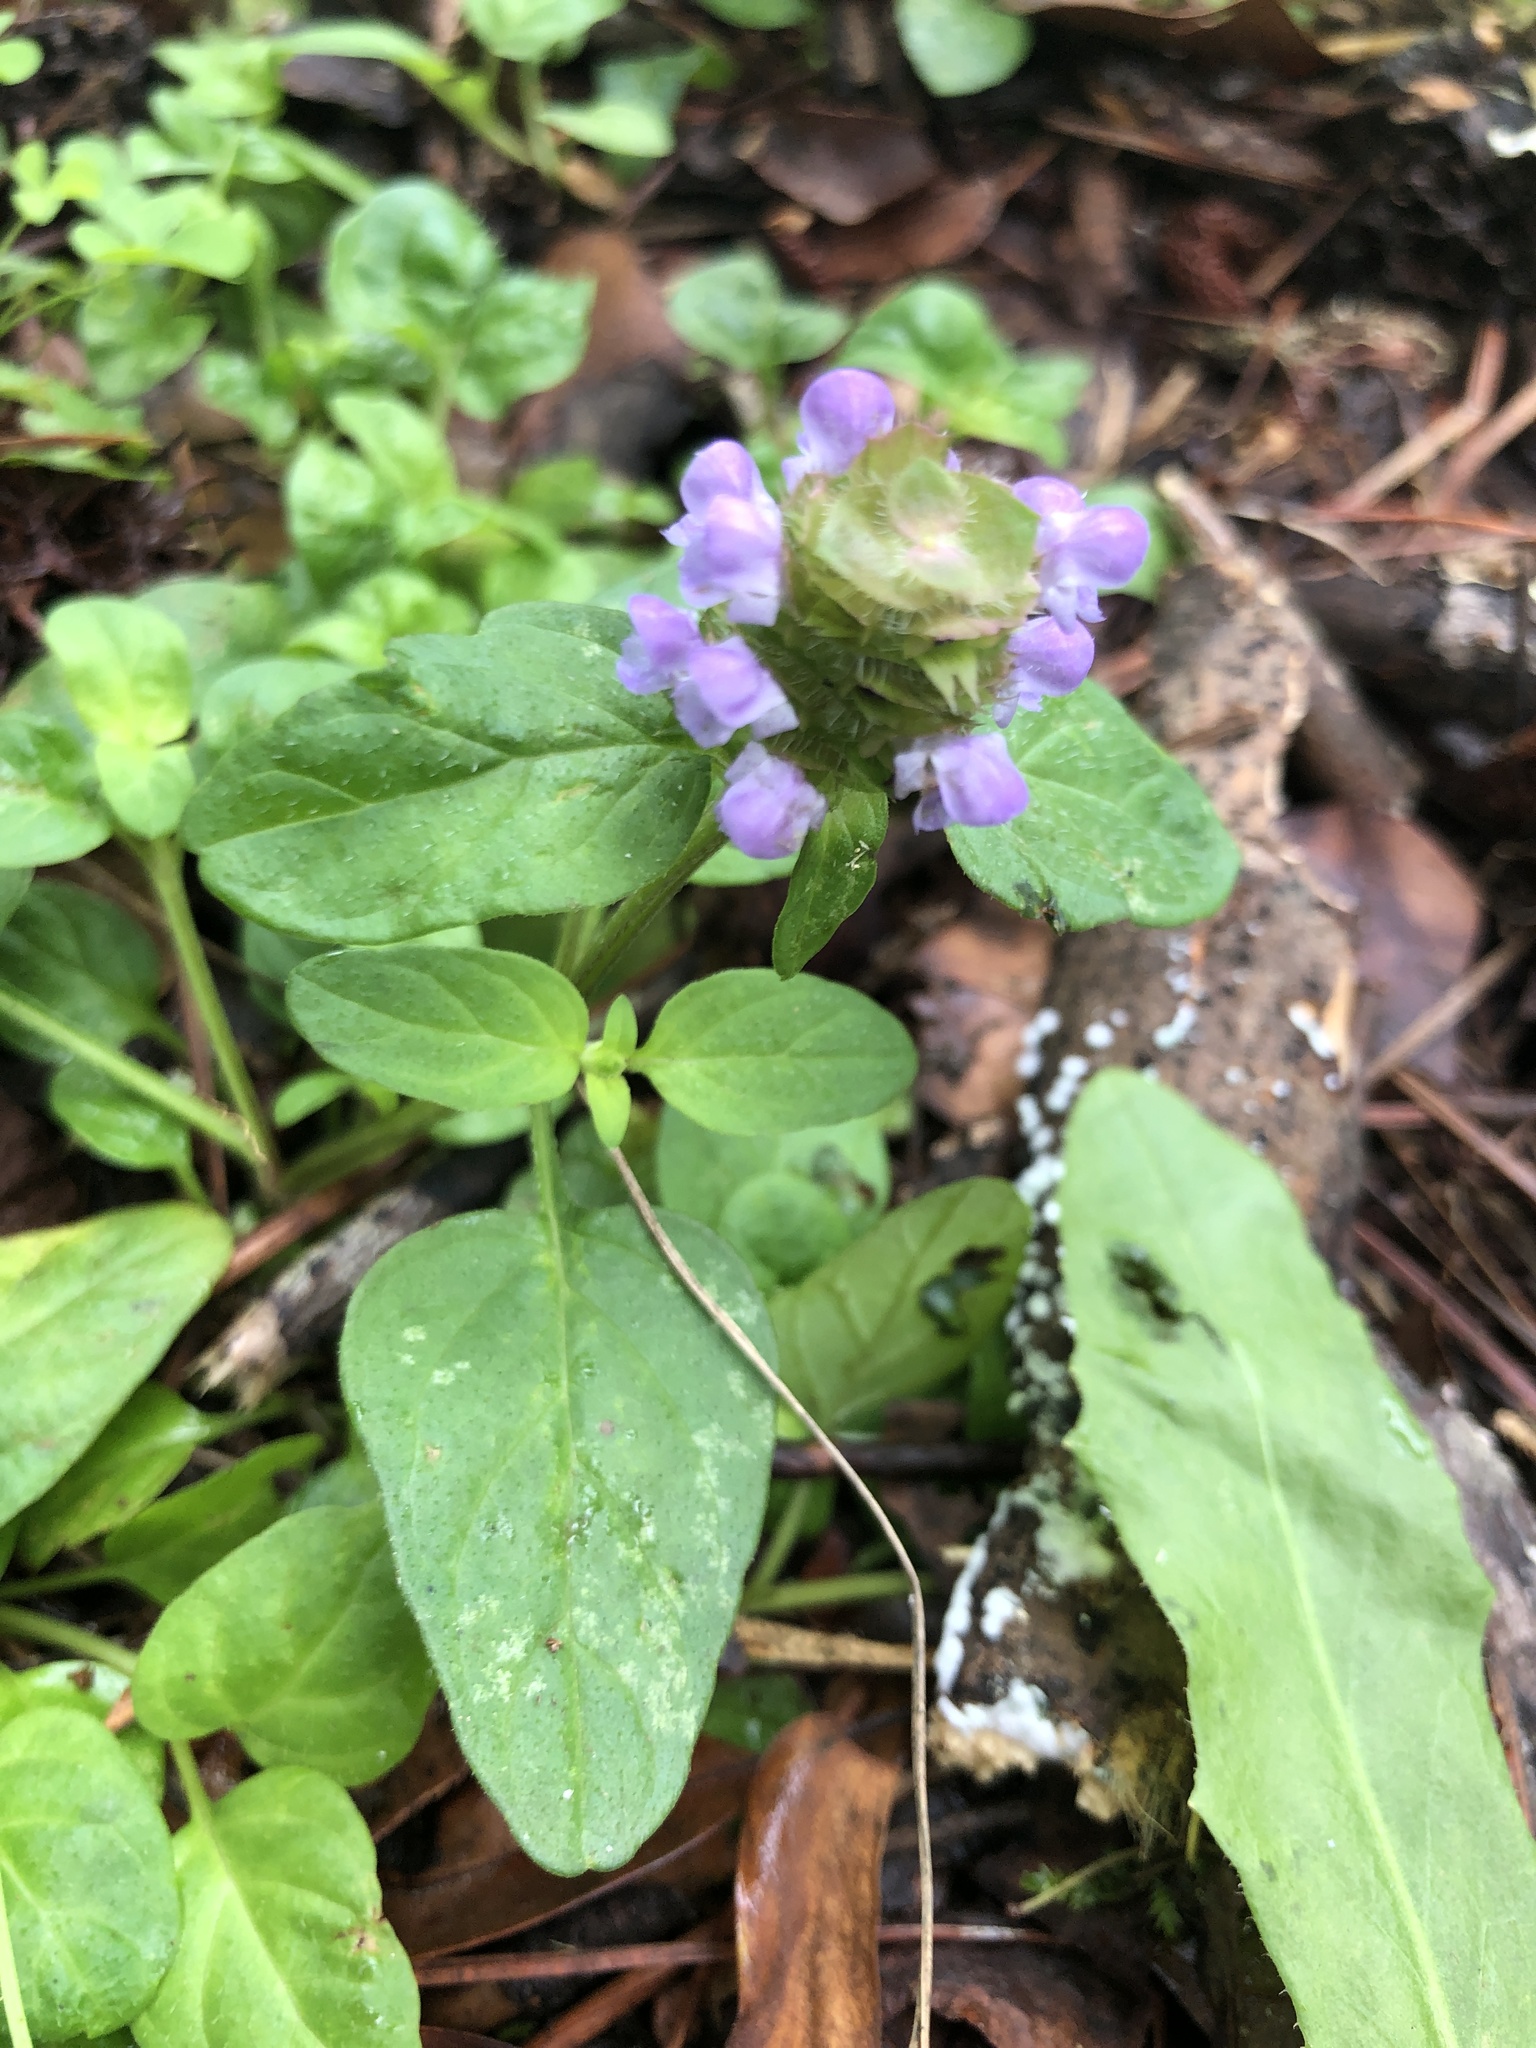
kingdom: Plantae
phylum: Tracheophyta
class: Magnoliopsida
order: Lamiales
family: Lamiaceae
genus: Prunella
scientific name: Prunella vulgaris
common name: Heal-all
